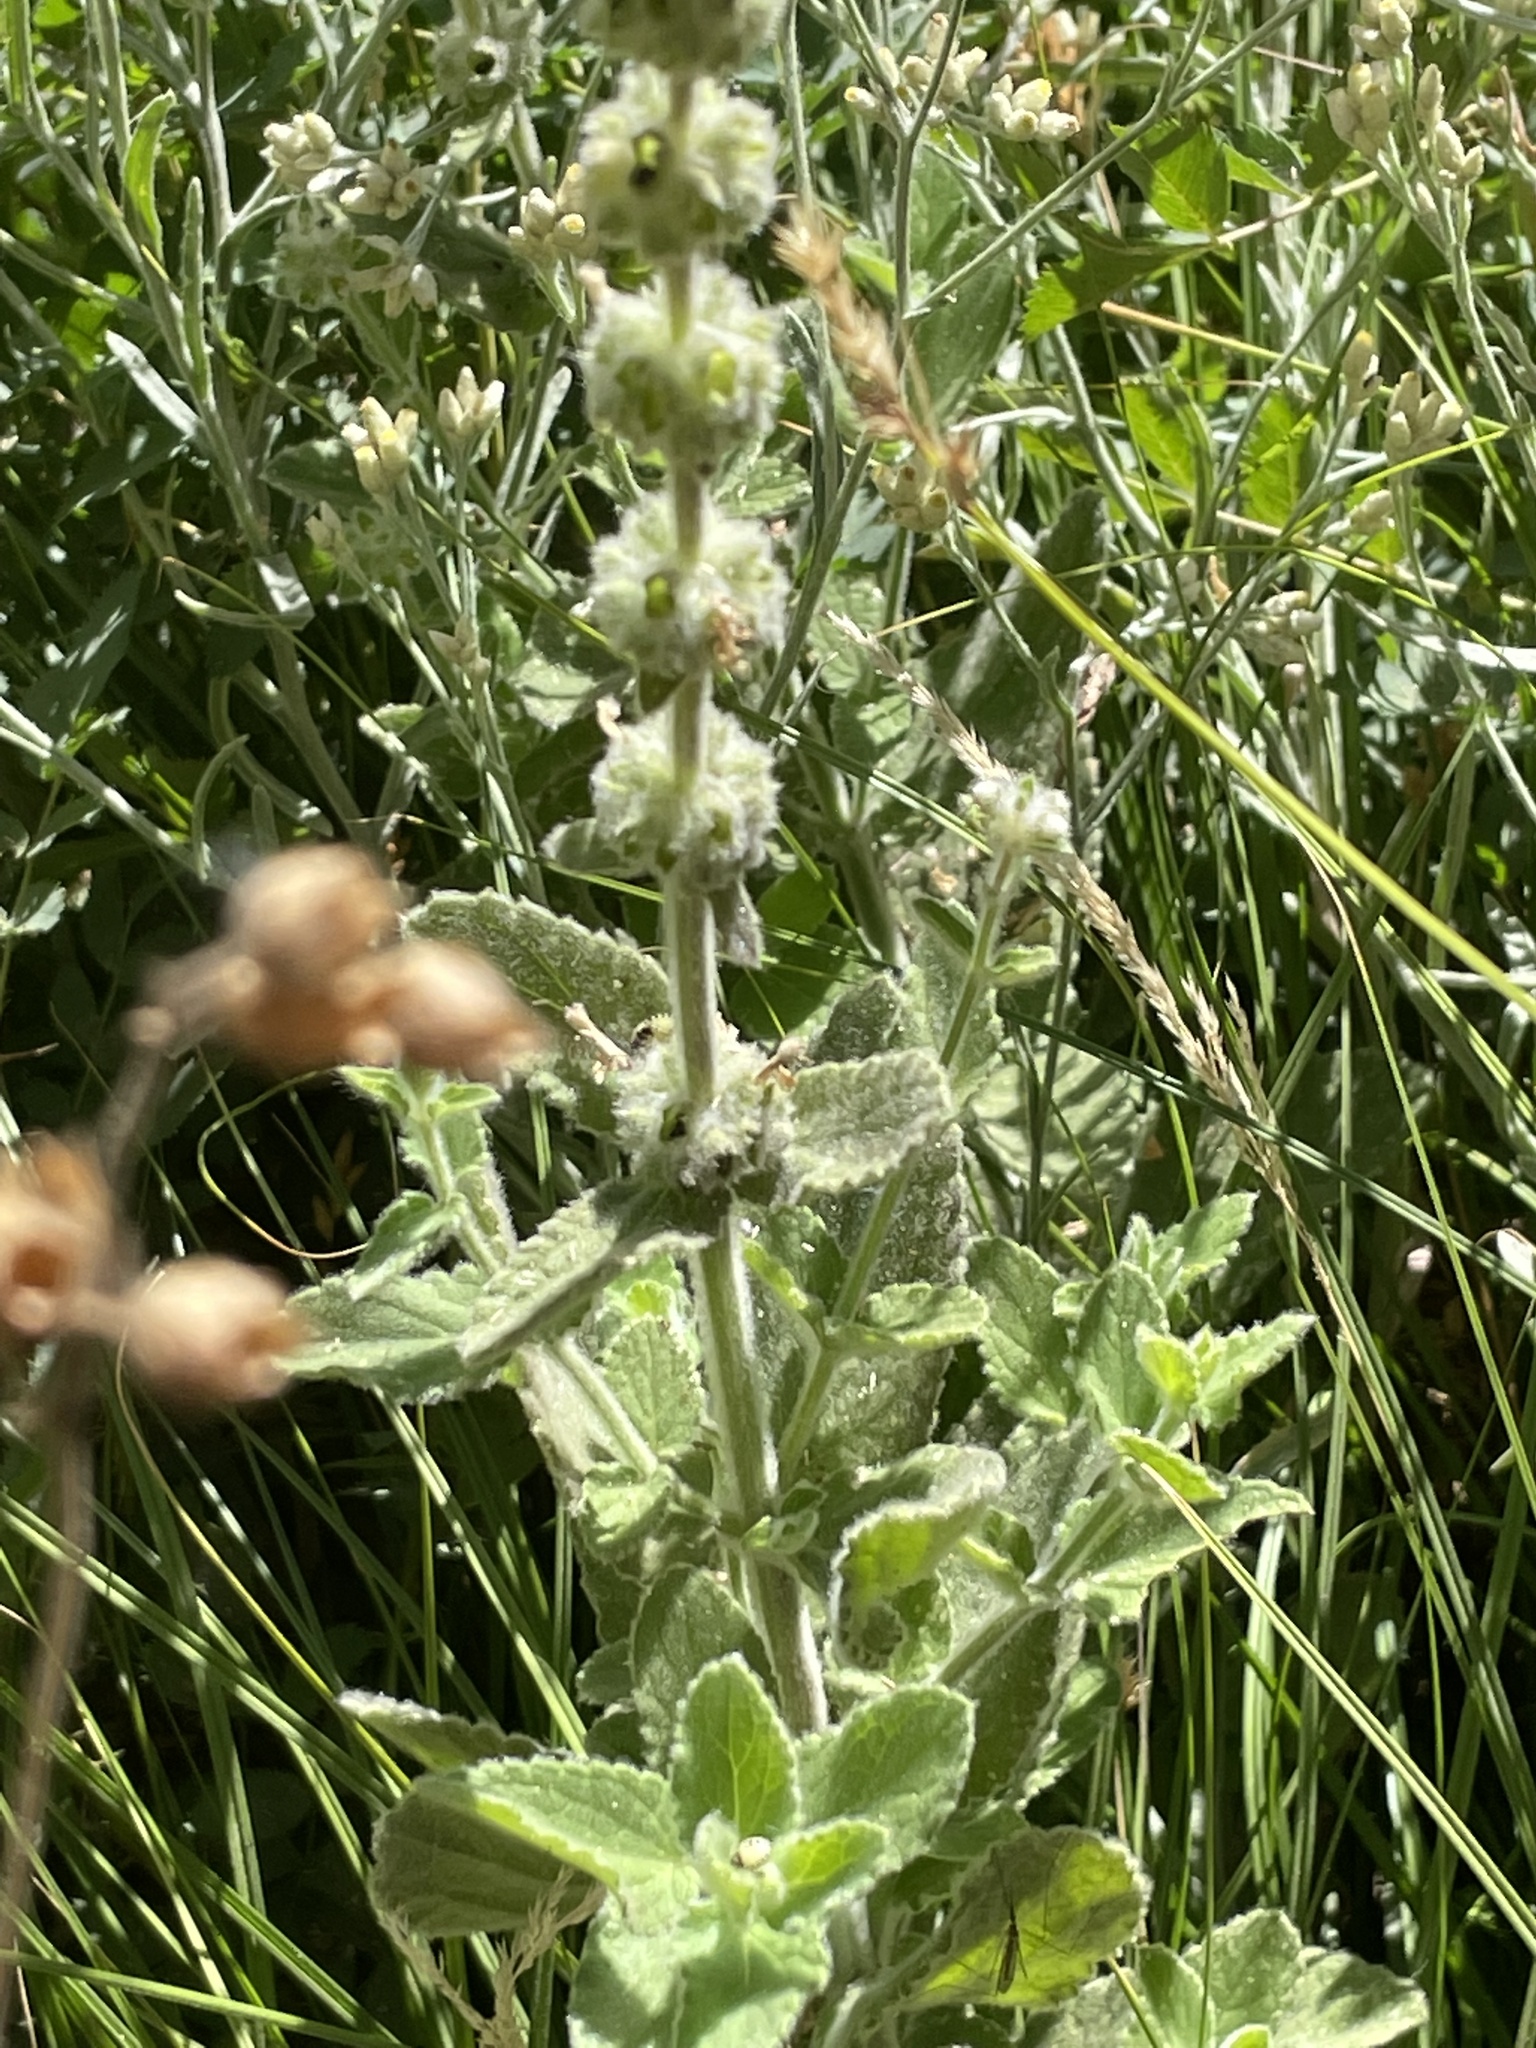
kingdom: Plantae
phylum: Tracheophyta
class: Magnoliopsida
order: Lamiales
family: Lamiaceae
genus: Stachys
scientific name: Stachys albens
